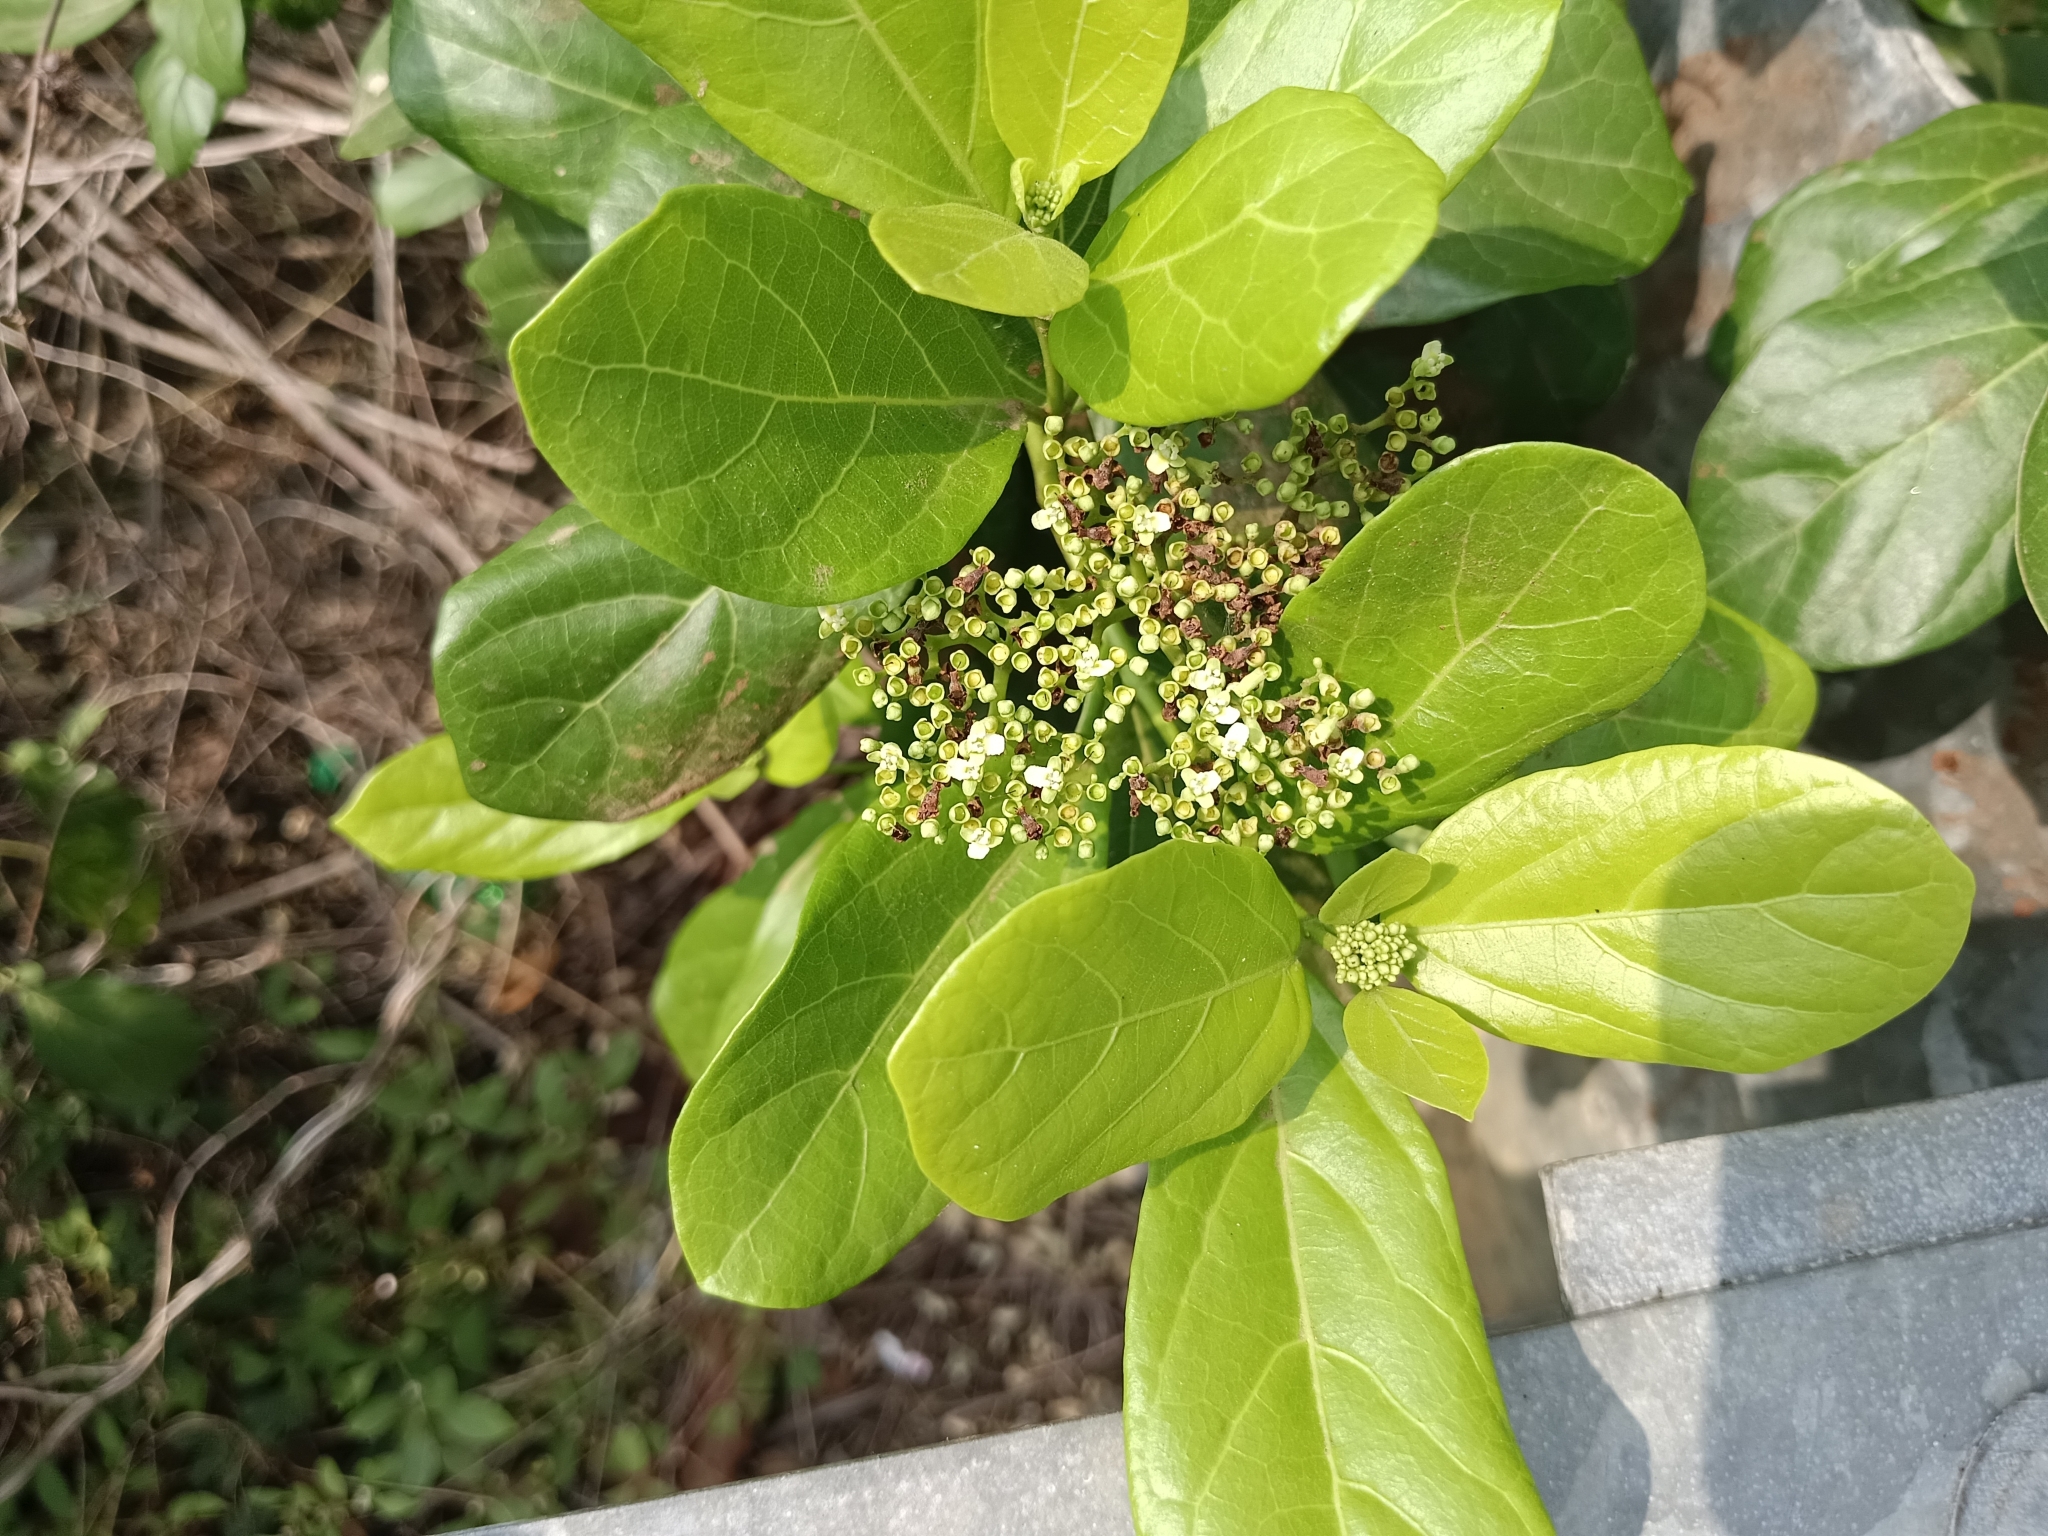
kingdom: Plantae
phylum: Tracheophyta
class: Magnoliopsida
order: Lamiales
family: Lamiaceae
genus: Premna
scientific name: Premna serratifolia
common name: Bastard guelder
